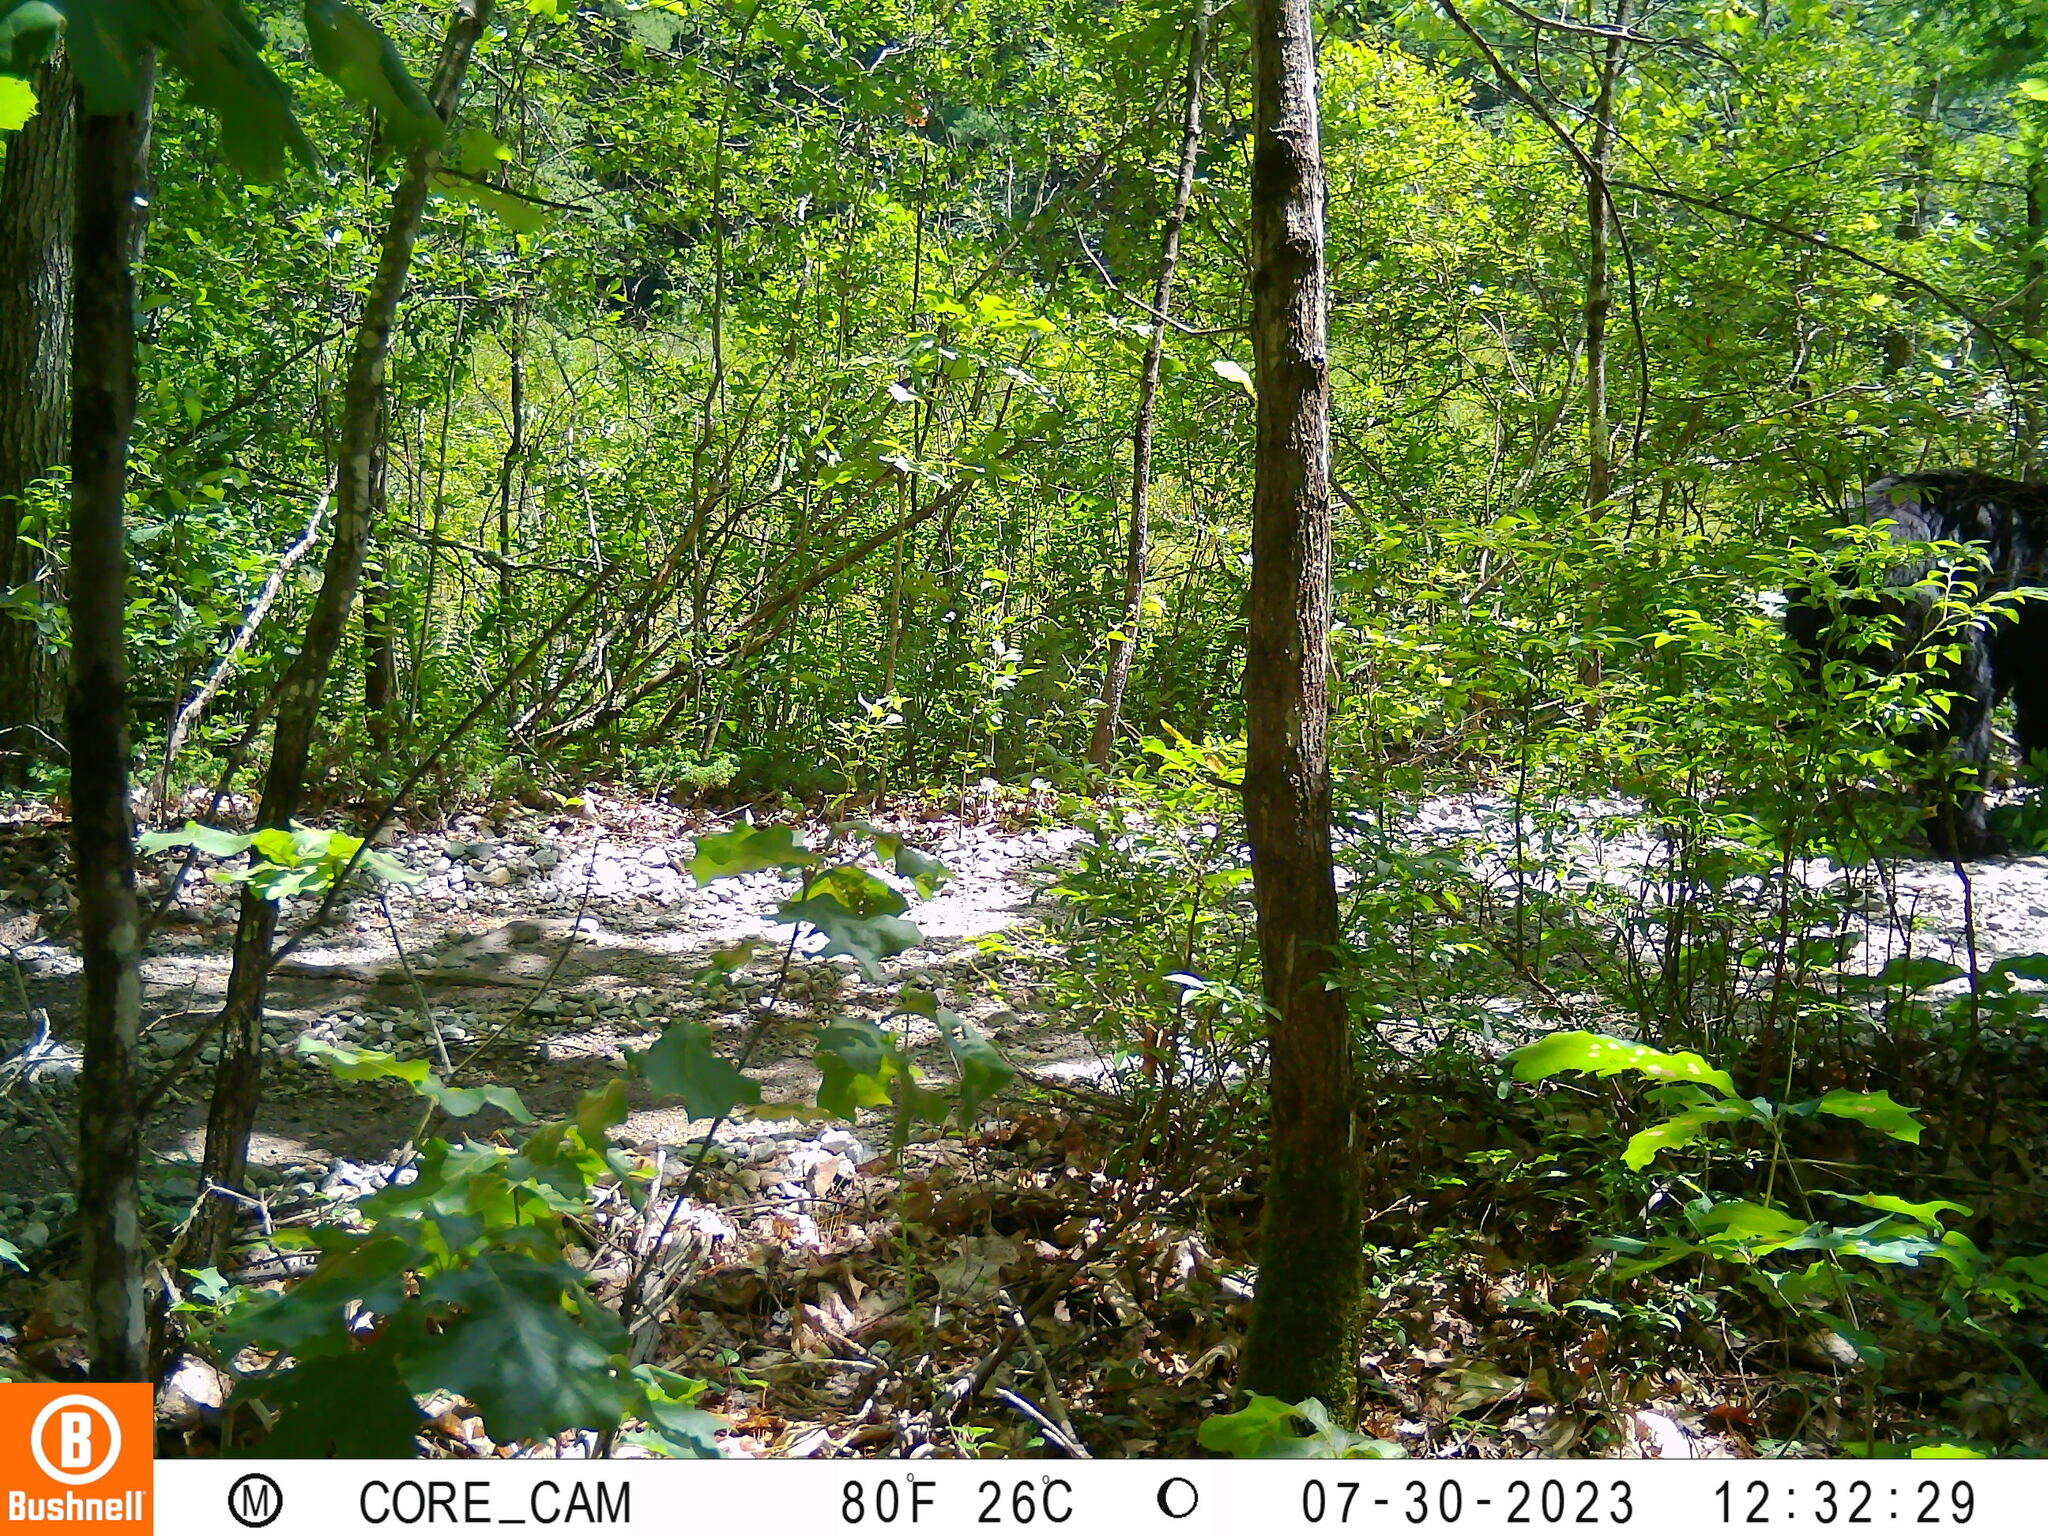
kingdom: Animalia
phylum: Chordata
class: Mammalia
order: Carnivora
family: Ursidae
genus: Ursus
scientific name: Ursus americanus
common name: American black bear
